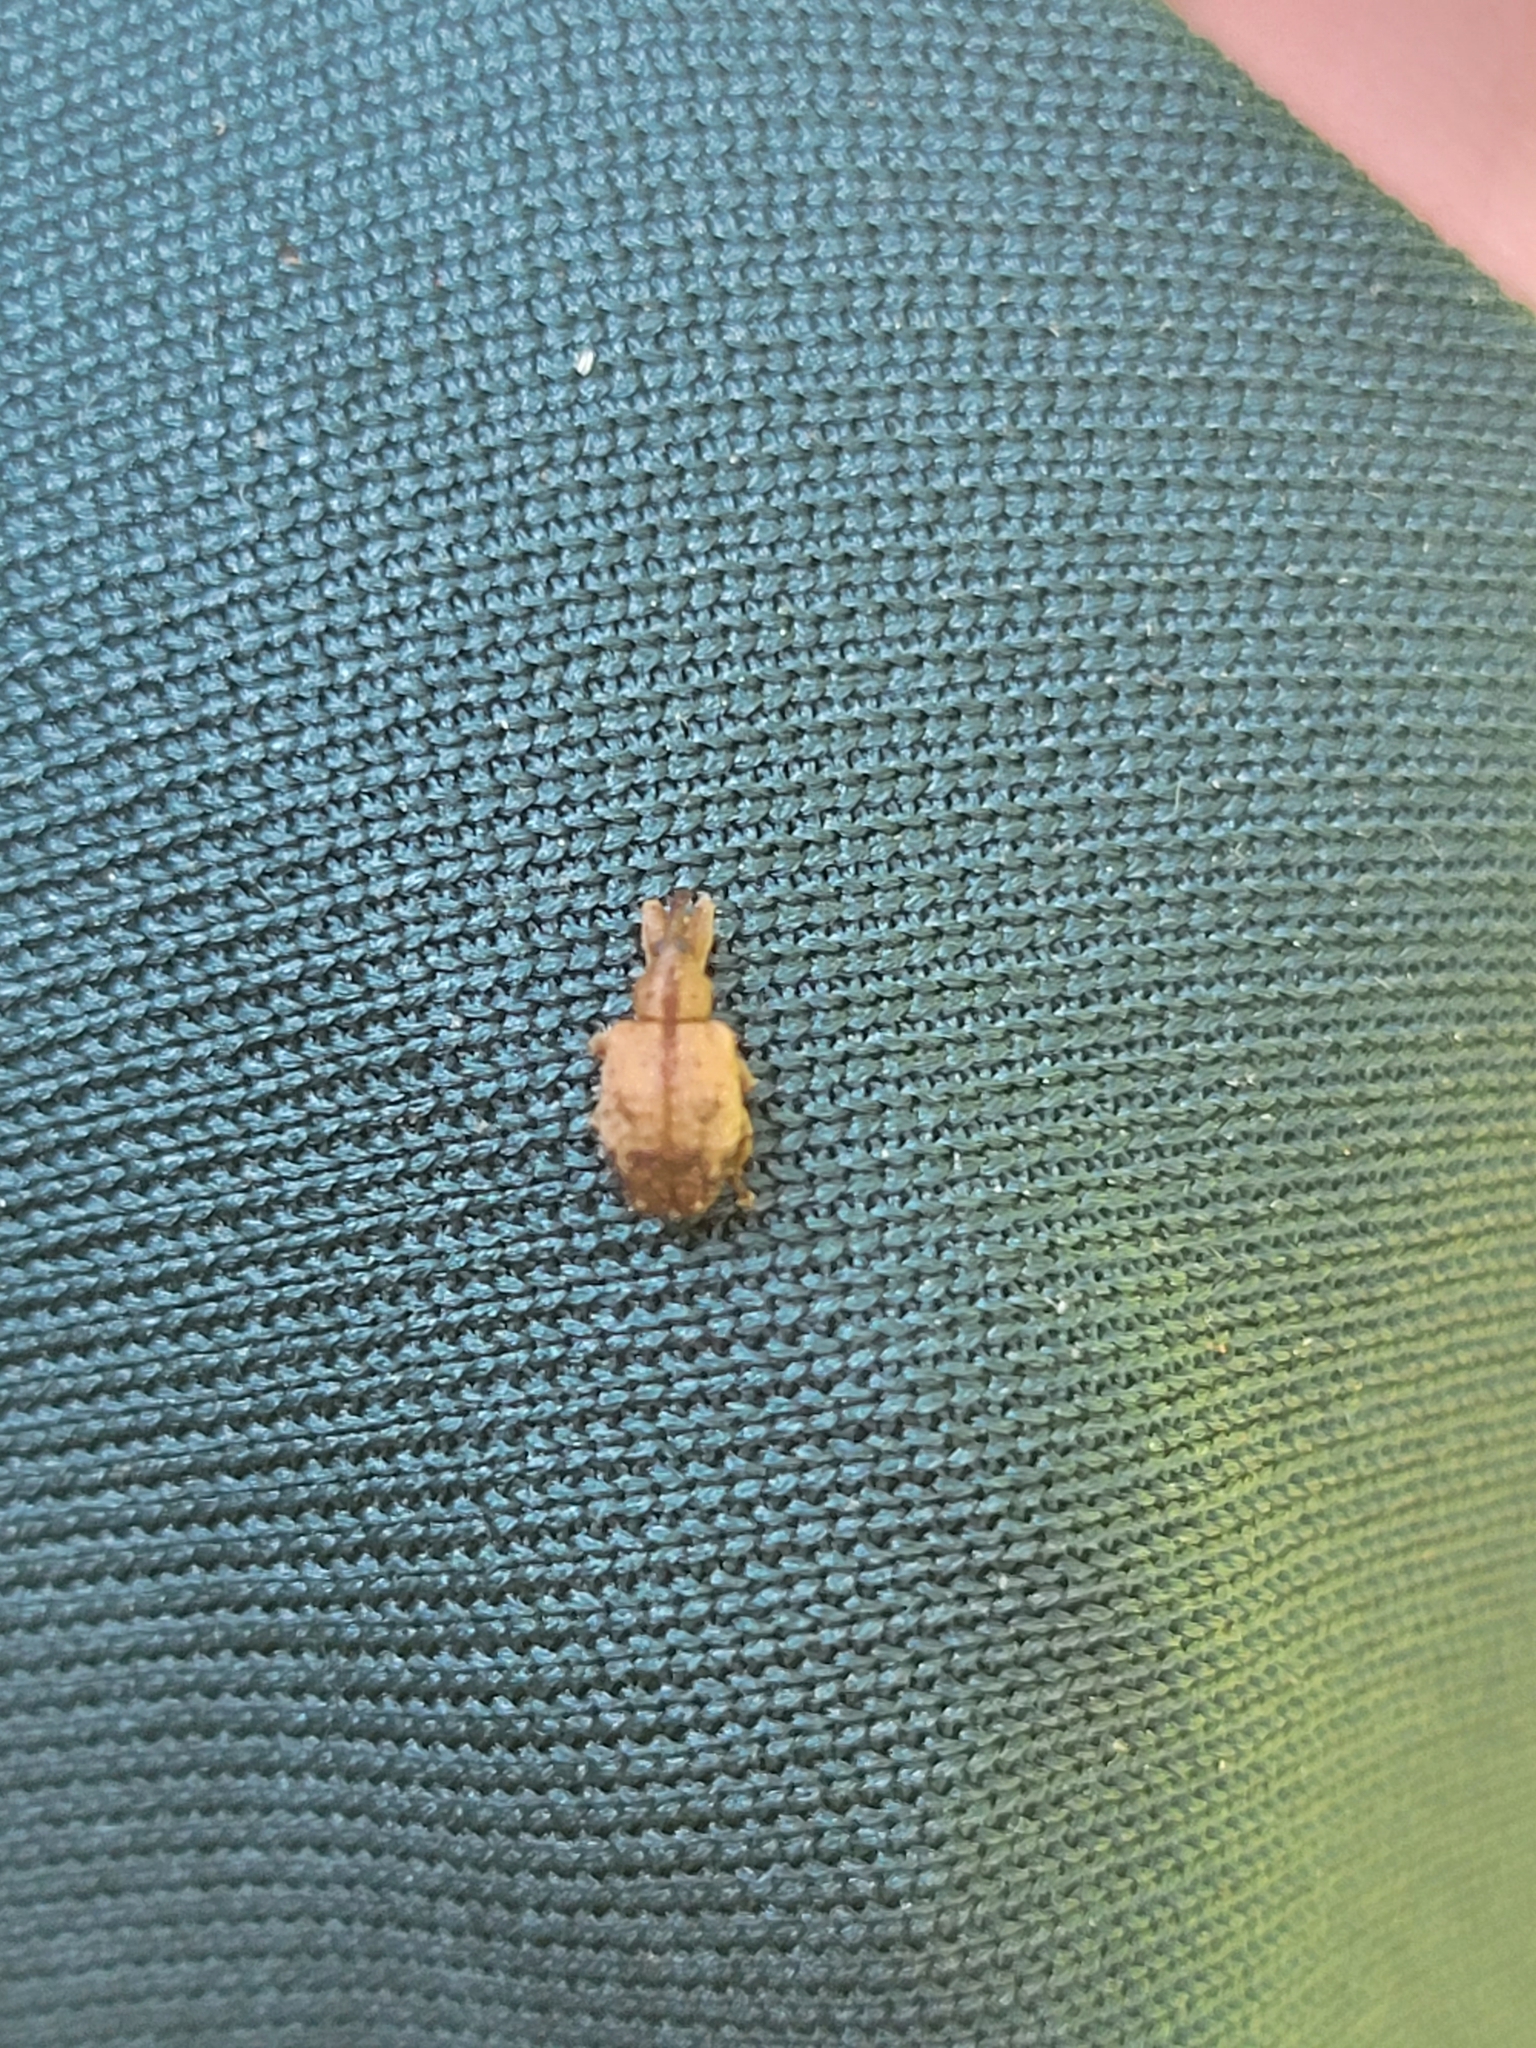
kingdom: Animalia
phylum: Arthropoda
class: Insecta
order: Coleoptera
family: Curculionidae
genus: Ochyromera
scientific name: Ochyromera ligustri
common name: Weevil
